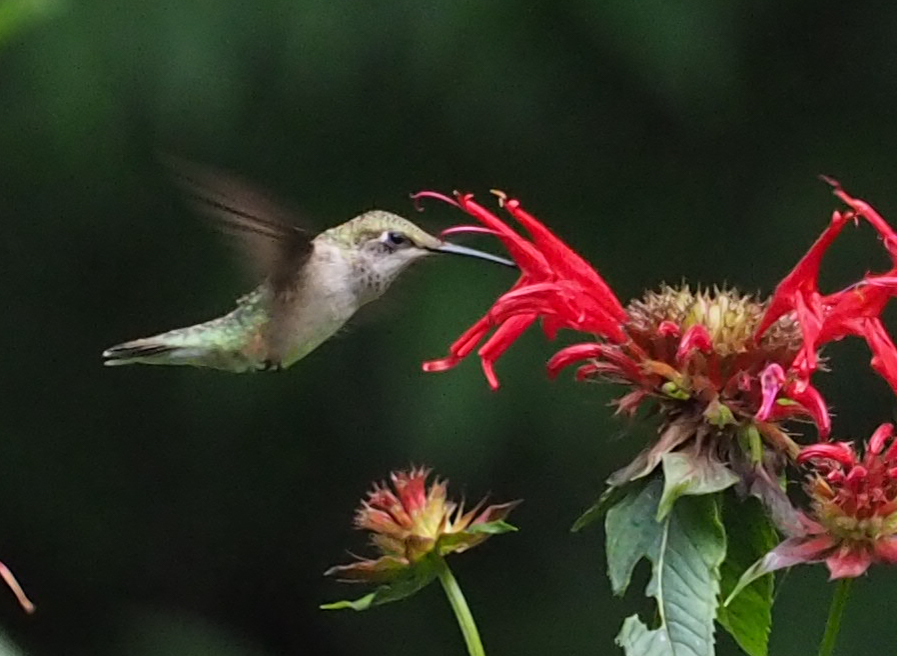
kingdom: Animalia
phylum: Chordata
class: Aves
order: Apodiformes
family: Trochilidae
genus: Archilochus
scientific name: Archilochus colubris
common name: Ruby-throated hummingbird
